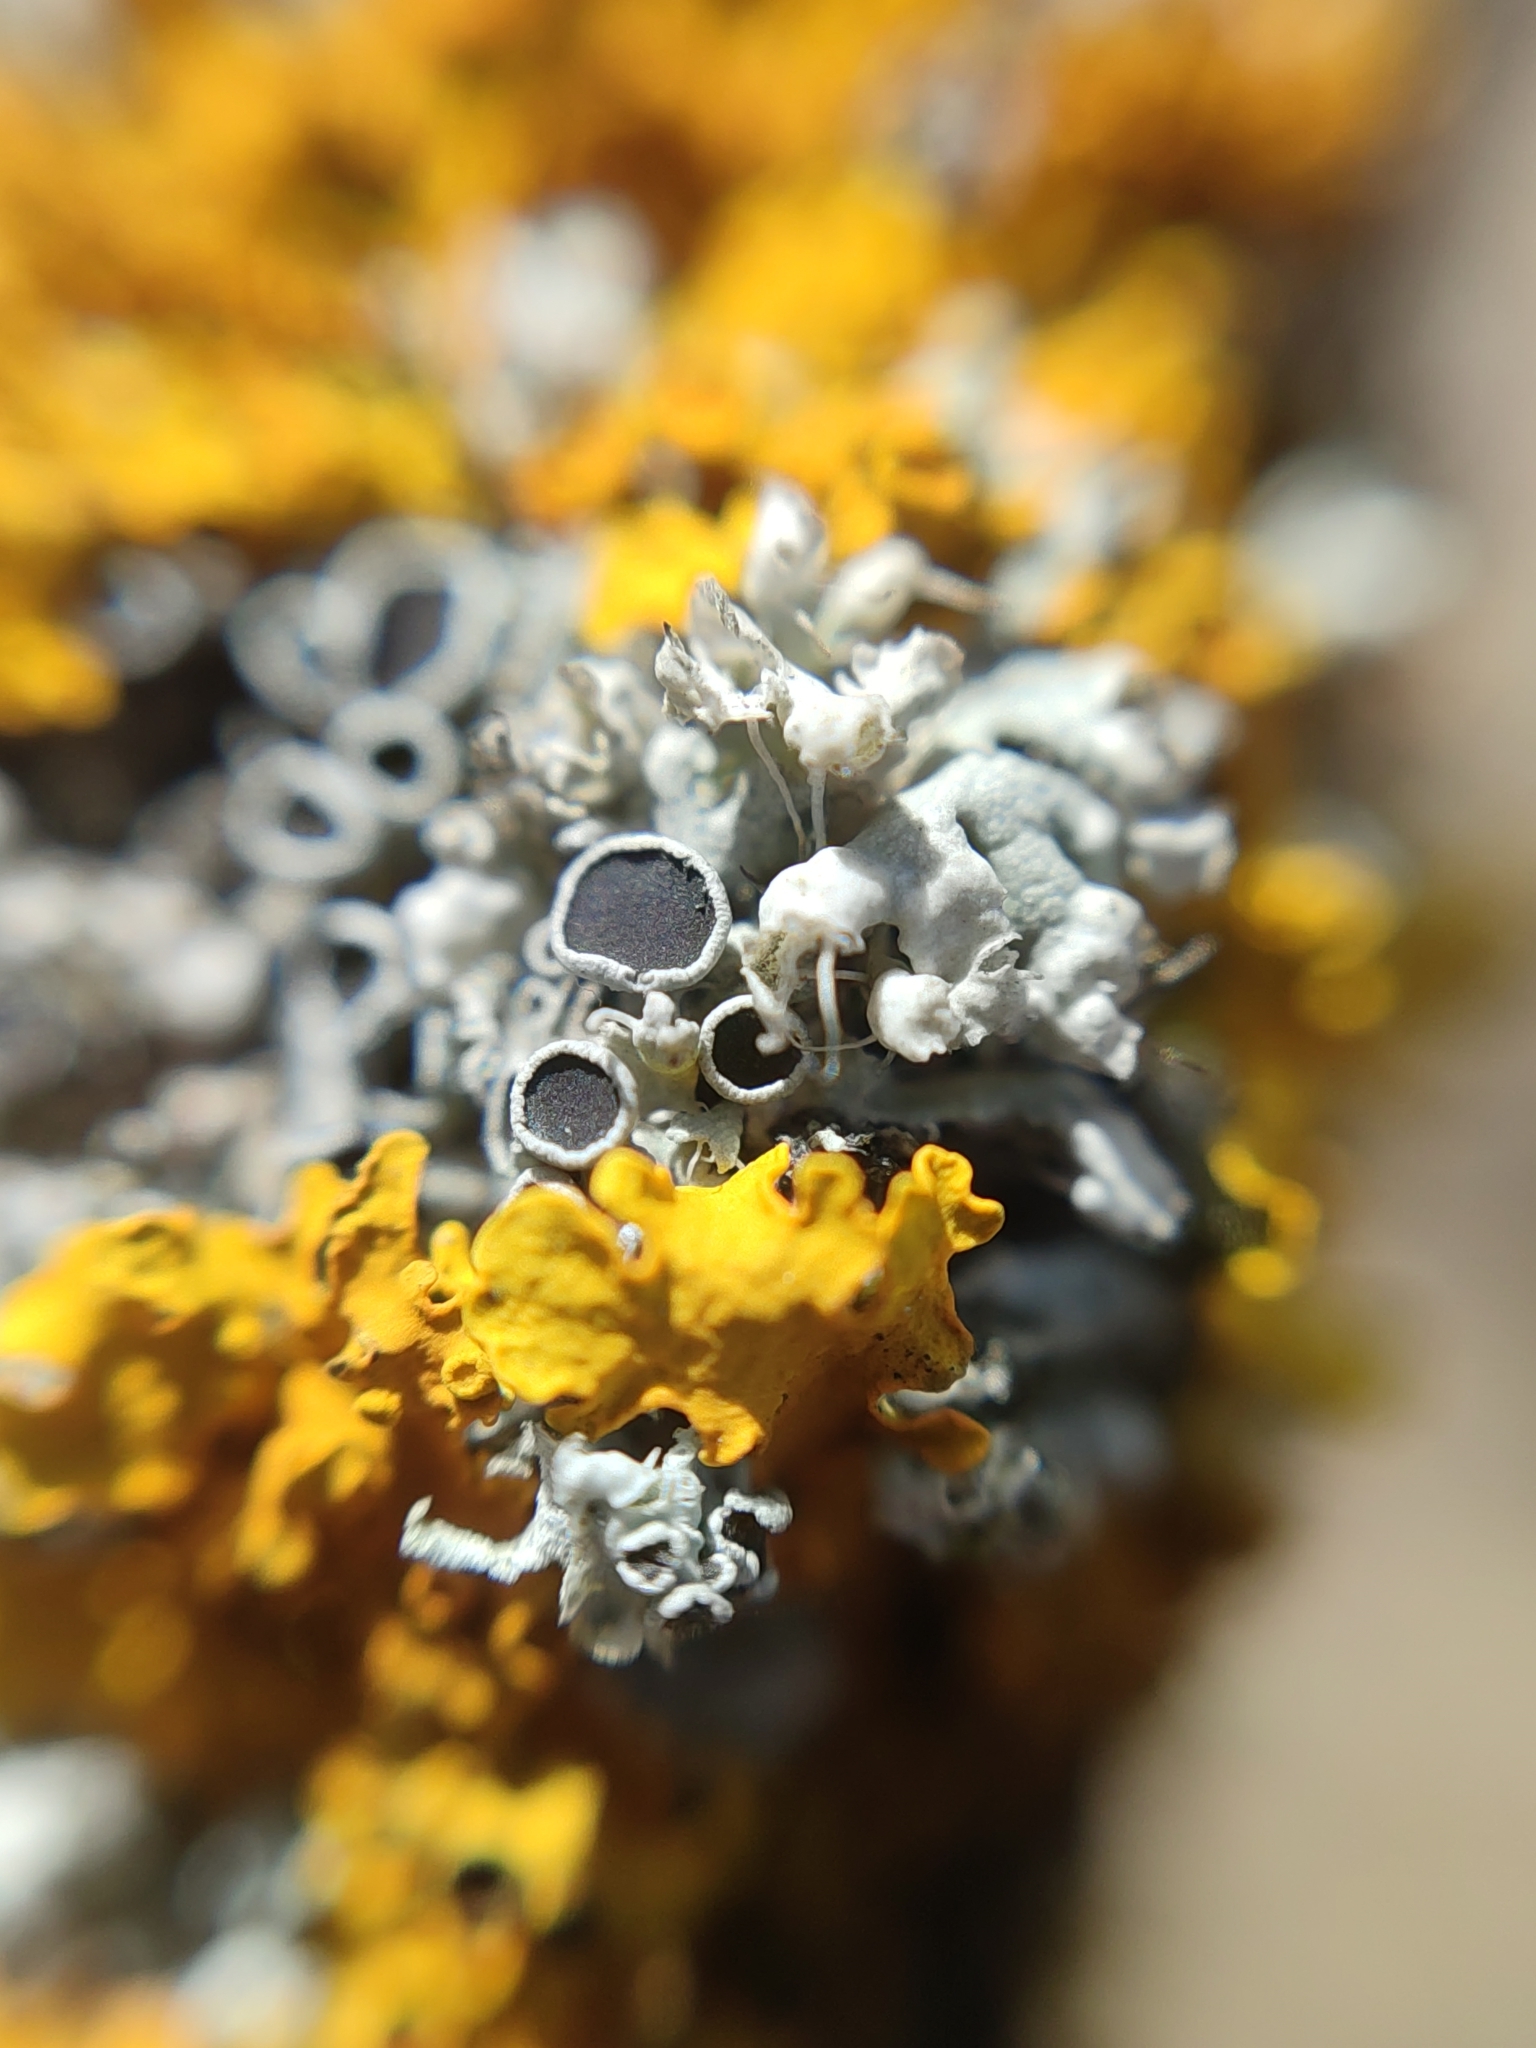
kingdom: Fungi
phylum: Ascomycota
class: Lecanoromycetes
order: Caliciales
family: Physciaceae
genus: Physcia
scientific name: Physcia stellaris
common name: Star rosette lichen
